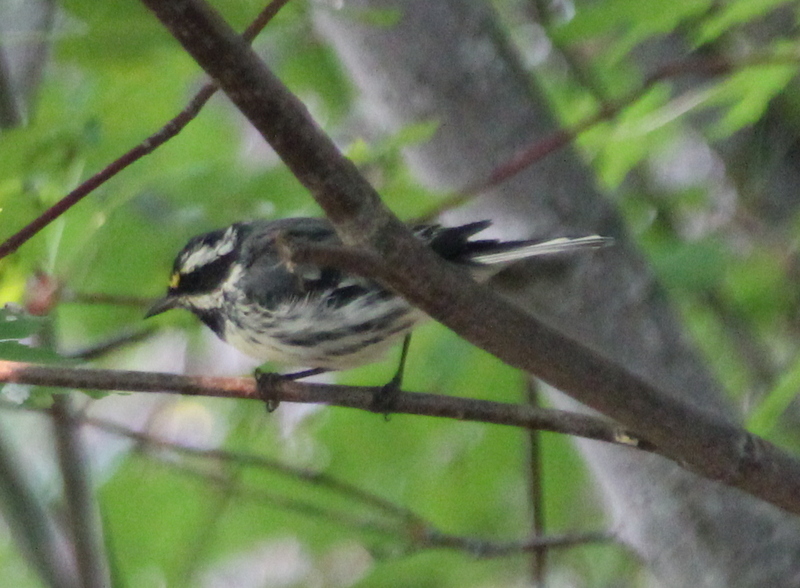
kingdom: Animalia
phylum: Chordata
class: Aves
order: Passeriformes
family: Parulidae
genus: Setophaga
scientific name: Setophaga nigrescens
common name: Black-throated gray warbler
